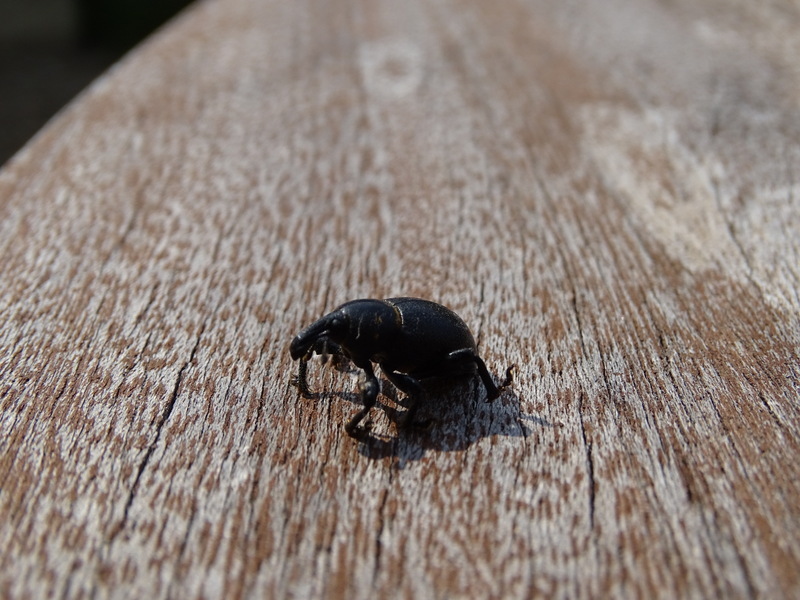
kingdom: Animalia
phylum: Arthropoda
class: Insecta
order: Coleoptera
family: Curculionidae
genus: Liparus
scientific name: Liparus coronatus
